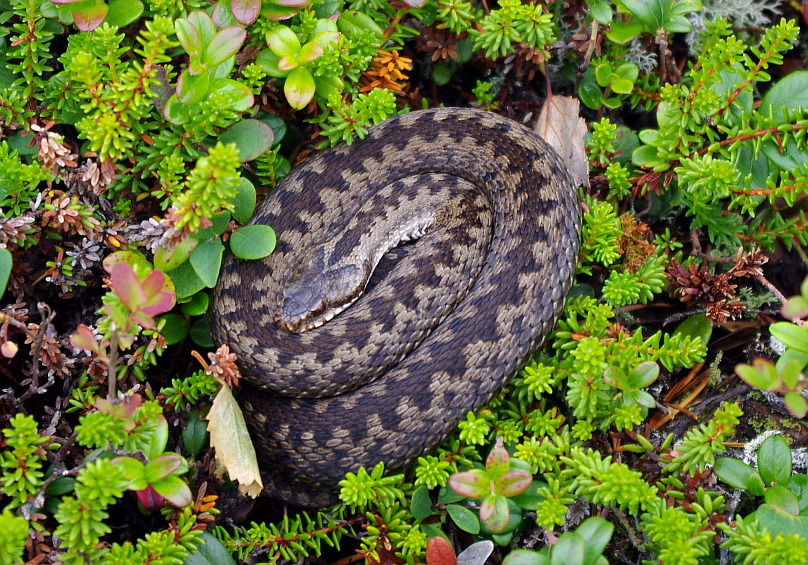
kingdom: Animalia
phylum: Chordata
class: Squamata
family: Viperidae
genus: Vipera
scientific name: Vipera berus
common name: Adder
